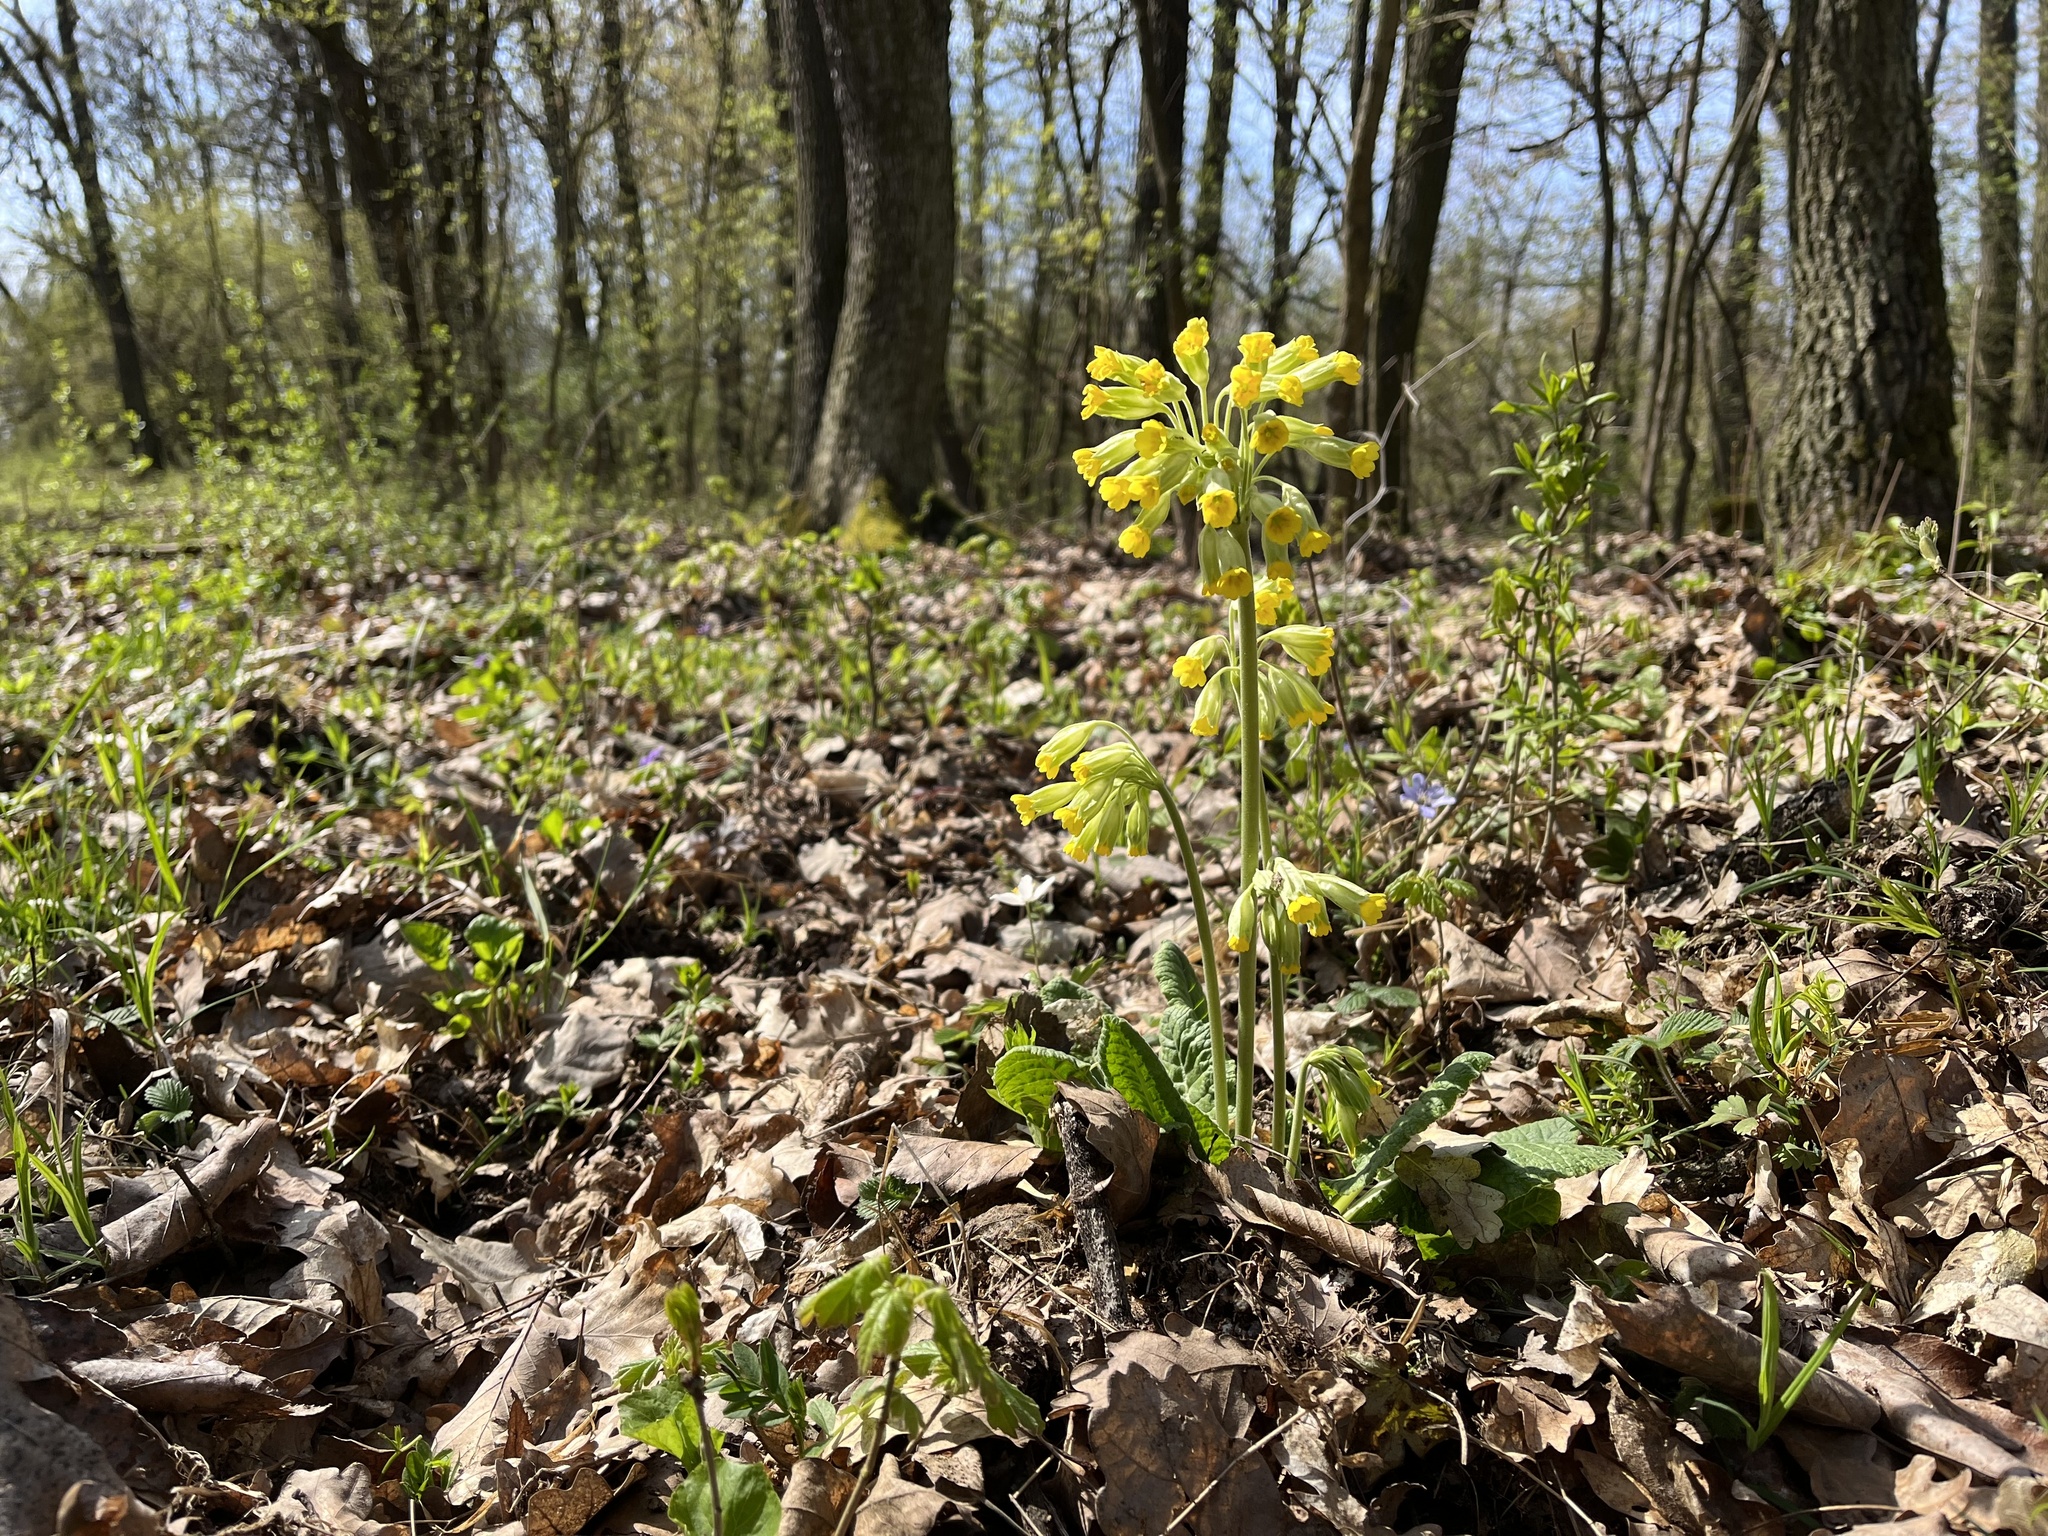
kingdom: Plantae
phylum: Tracheophyta
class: Magnoliopsida
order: Ericales
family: Primulaceae
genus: Primula
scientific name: Primula veris
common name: Cowslip
